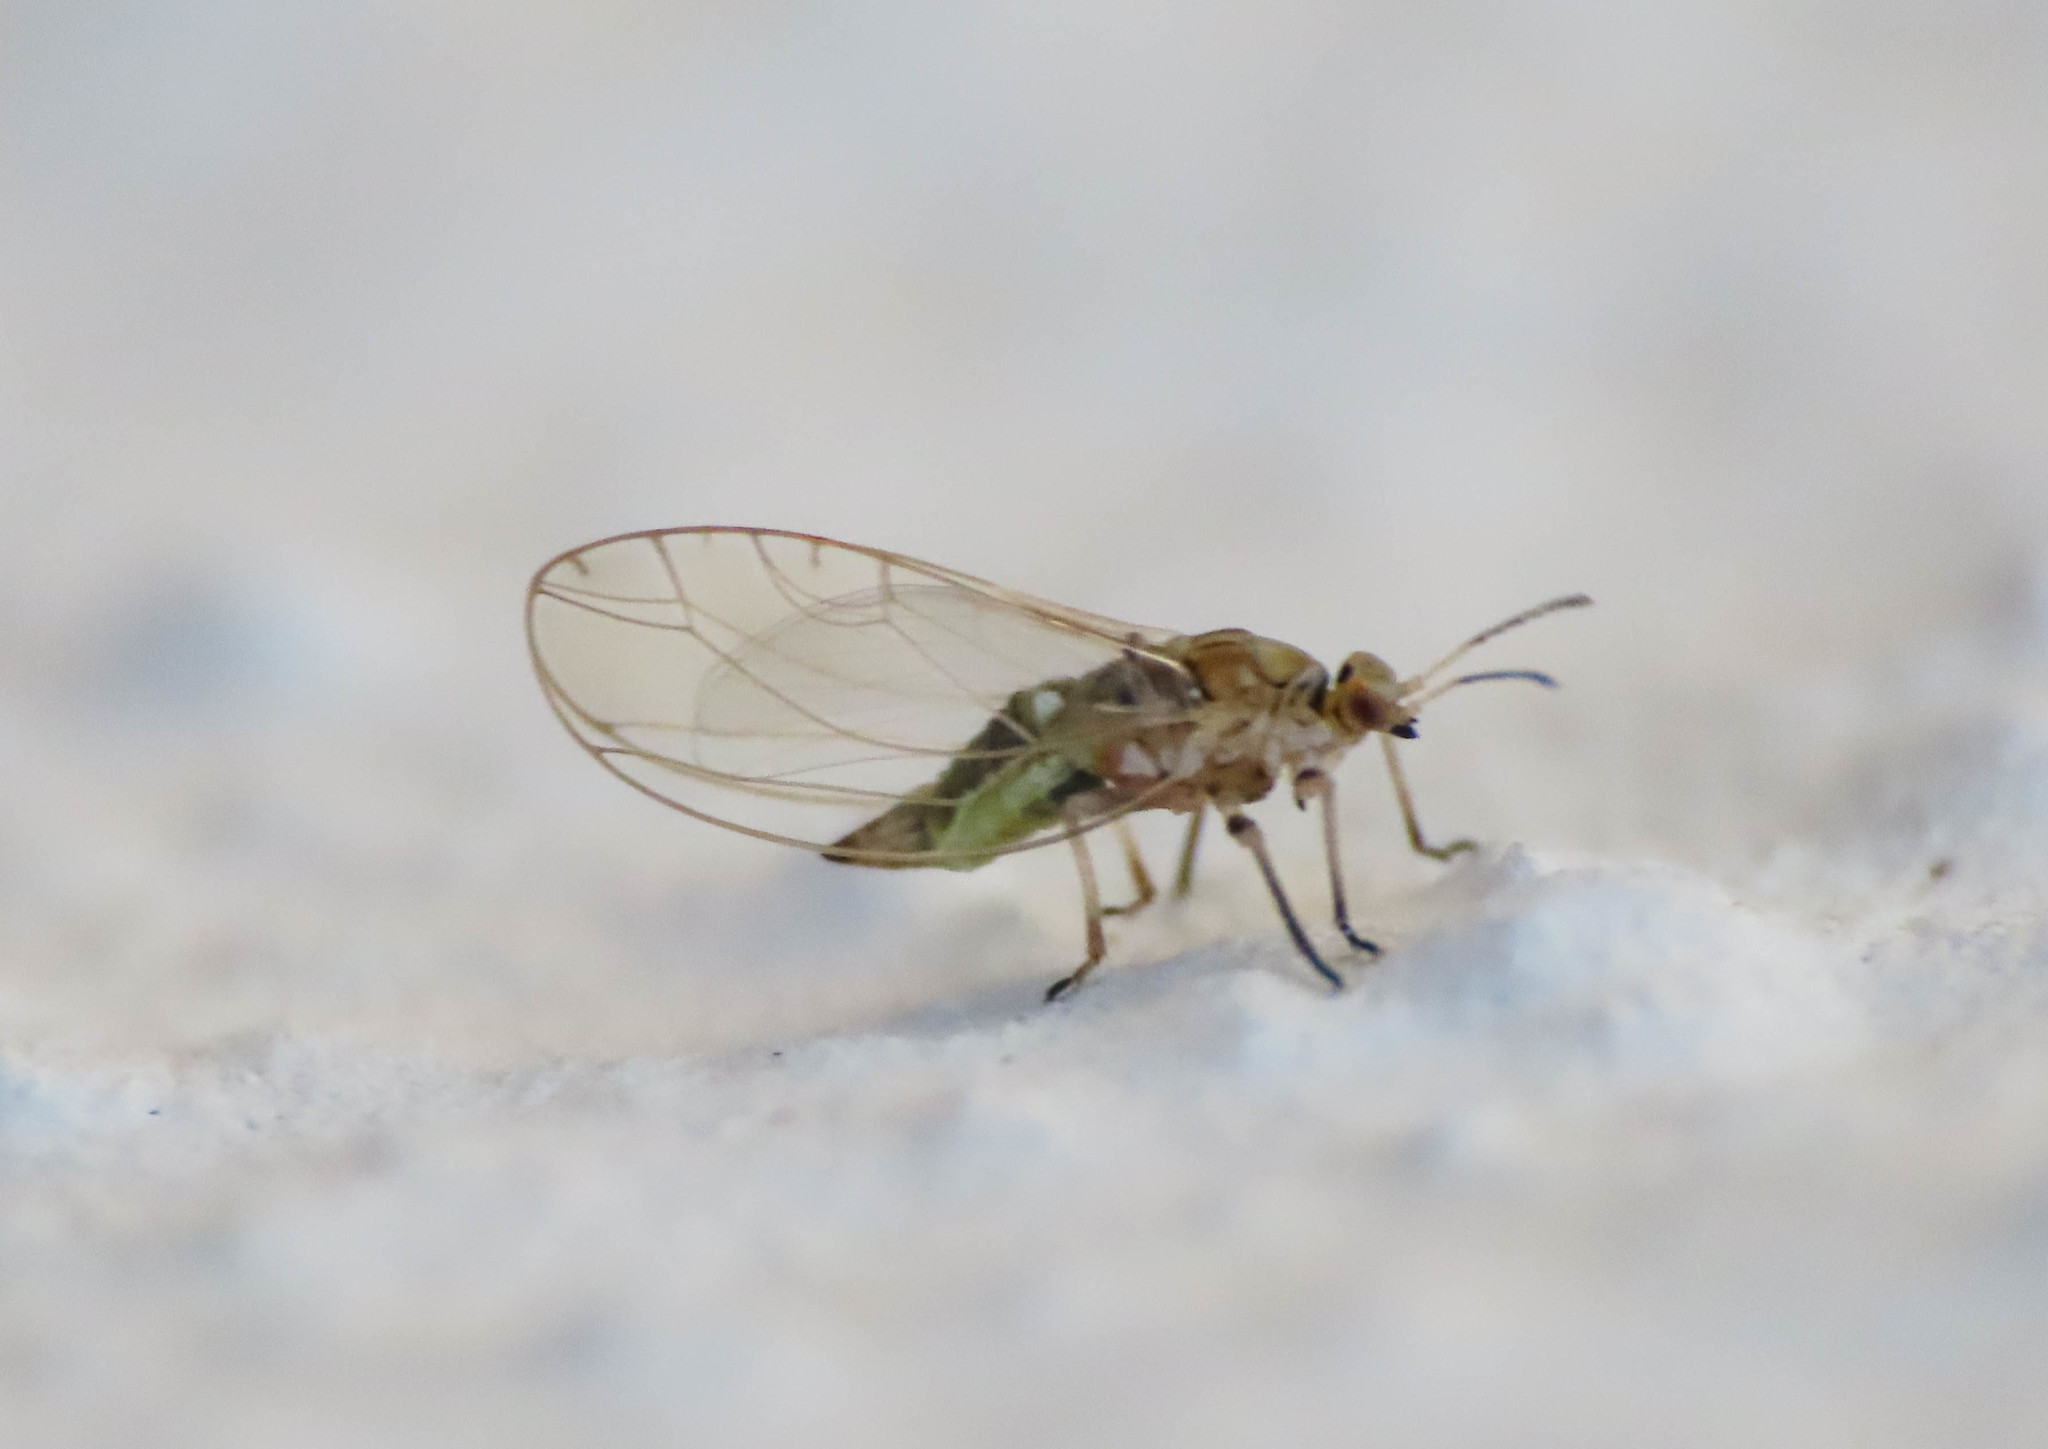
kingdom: Animalia
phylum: Arthropoda
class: Insecta
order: Hemiptera
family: Triozidae
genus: Trioza
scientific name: Trioza urticae
